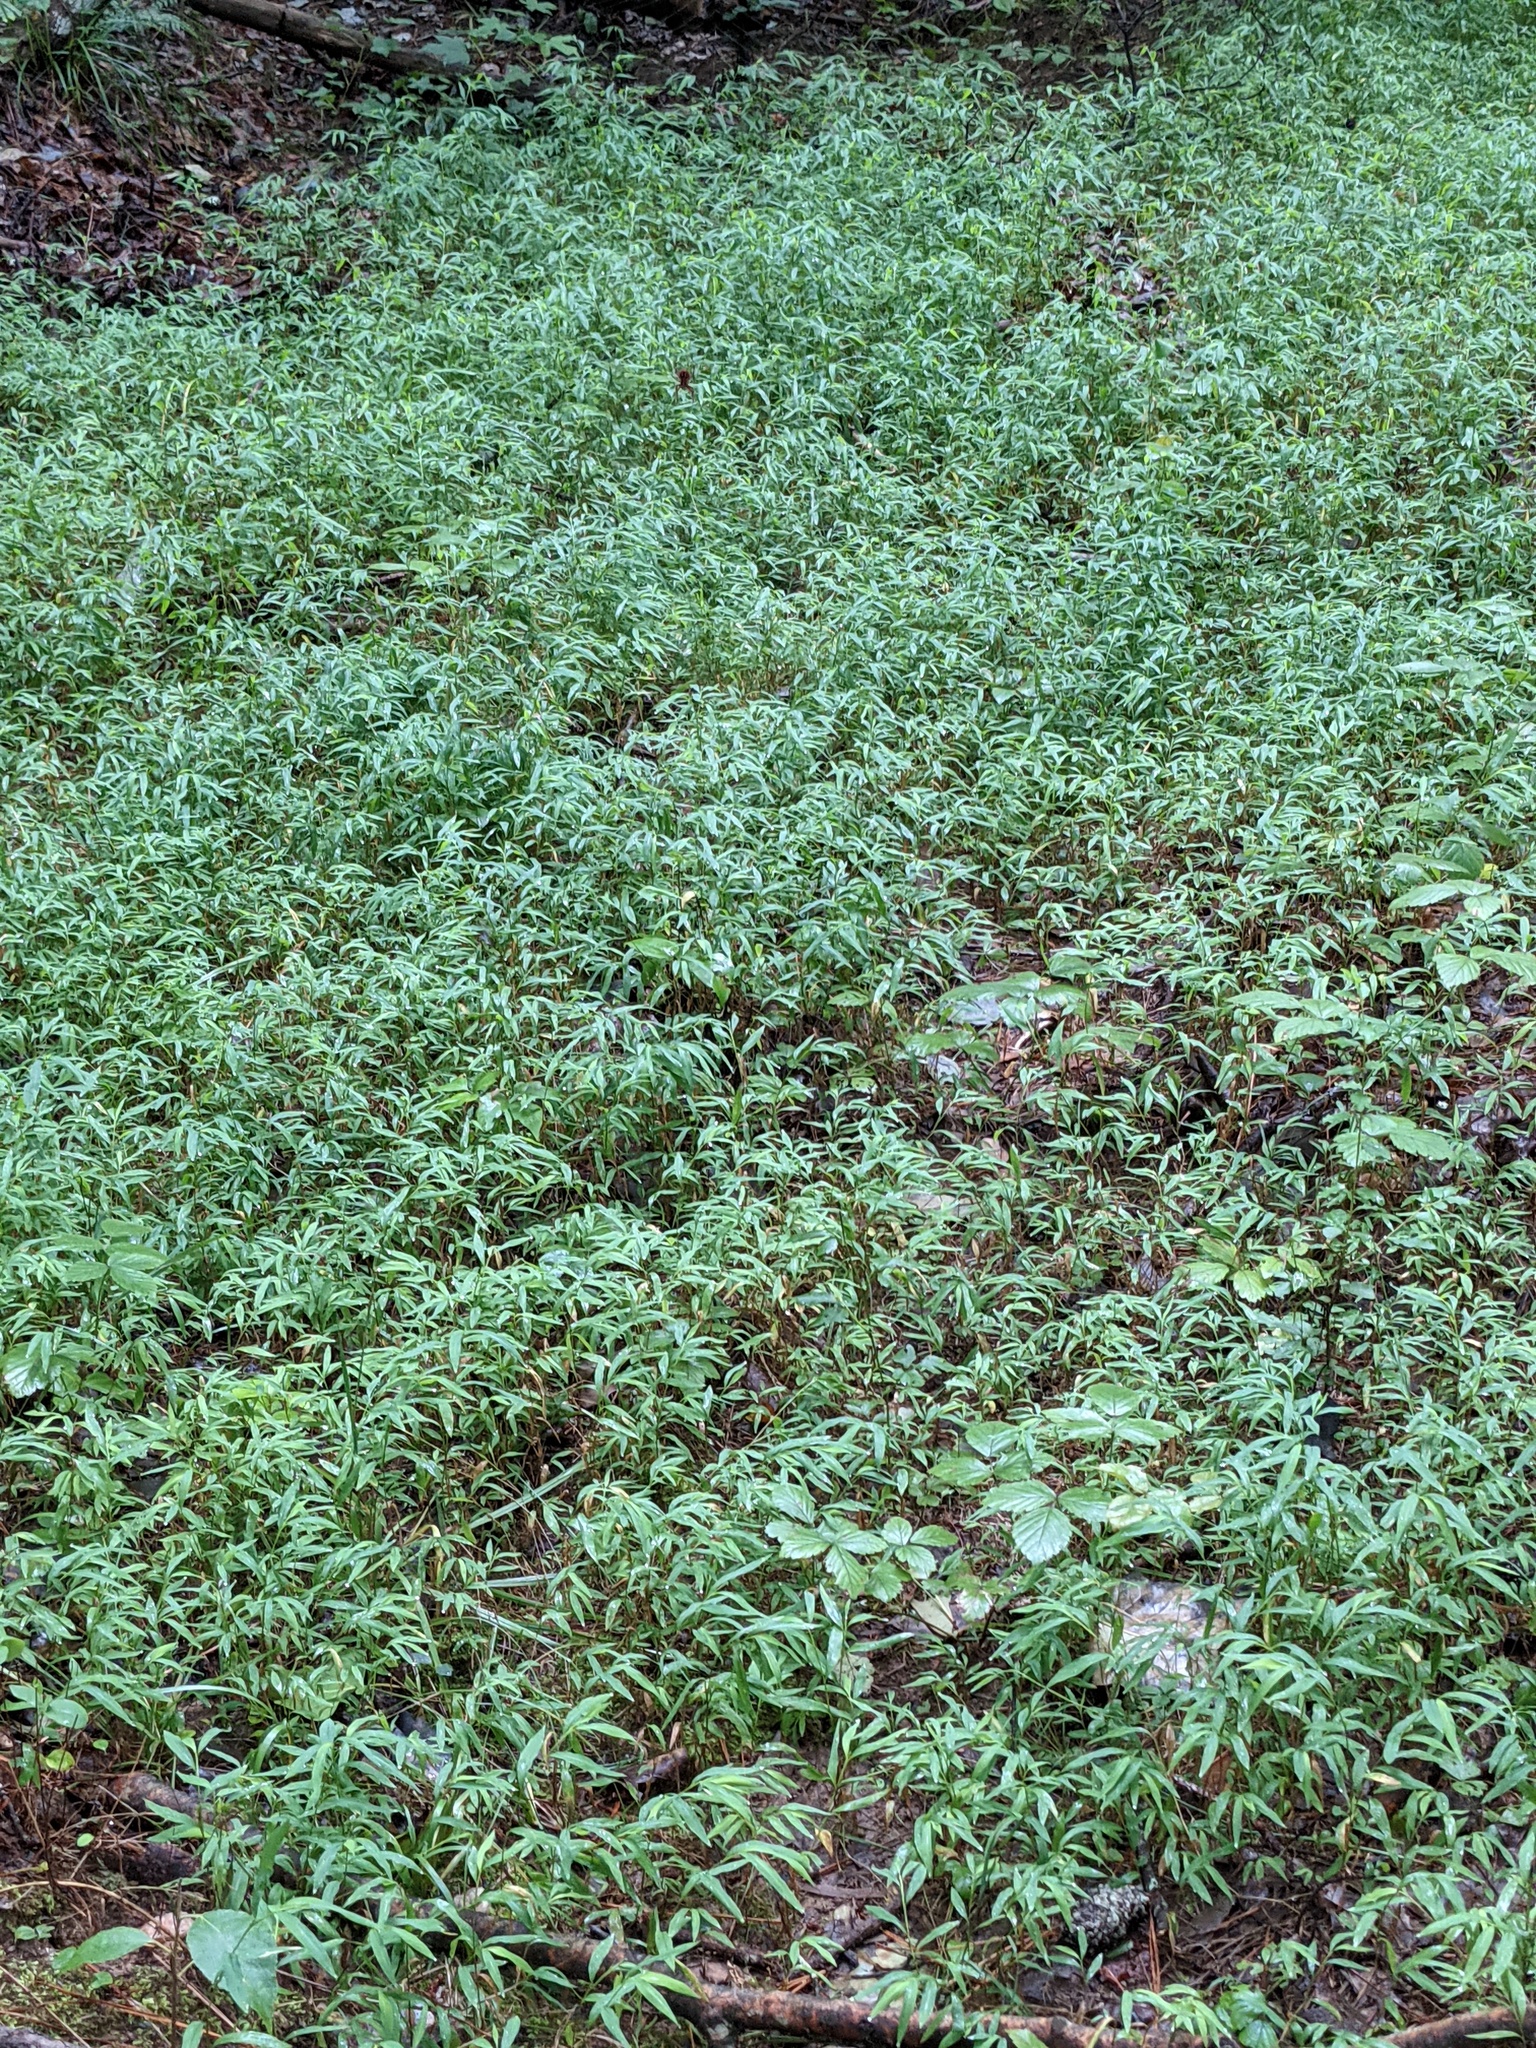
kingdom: Plantae
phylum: Tracheophyta
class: Liliopsida
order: Poales
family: Poaceae
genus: Microstegium
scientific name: Microstegium vimineum
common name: Japanese stiltgrass
